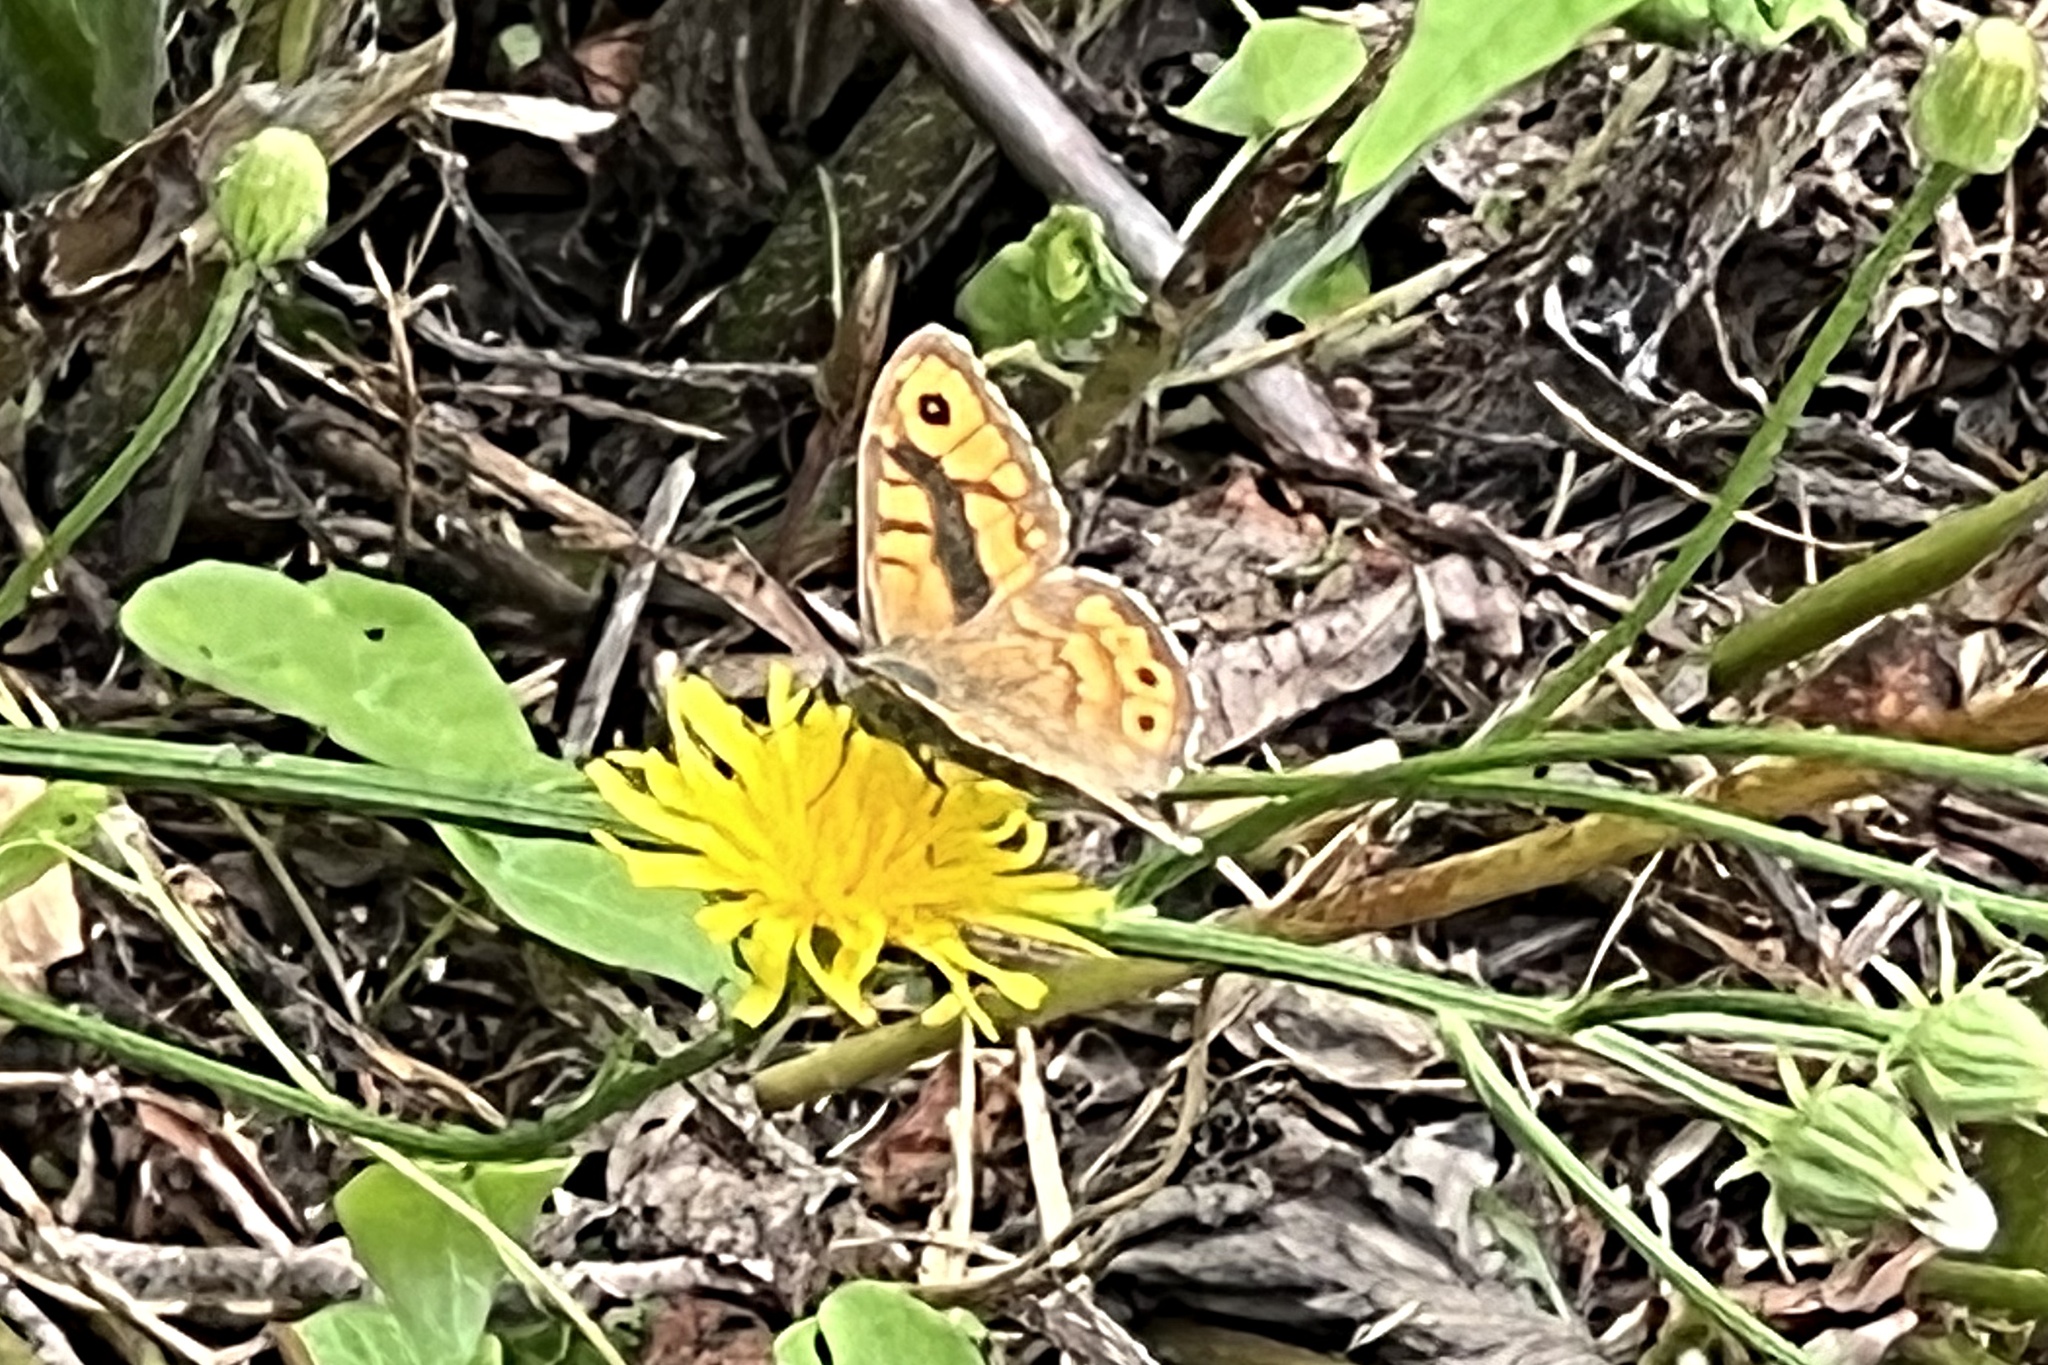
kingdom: Animalia
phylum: Arthropoda
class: Insecta
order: Lepidoptera
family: Nymphalidae
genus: Pararge
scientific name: Pararge Lasiommata megera
